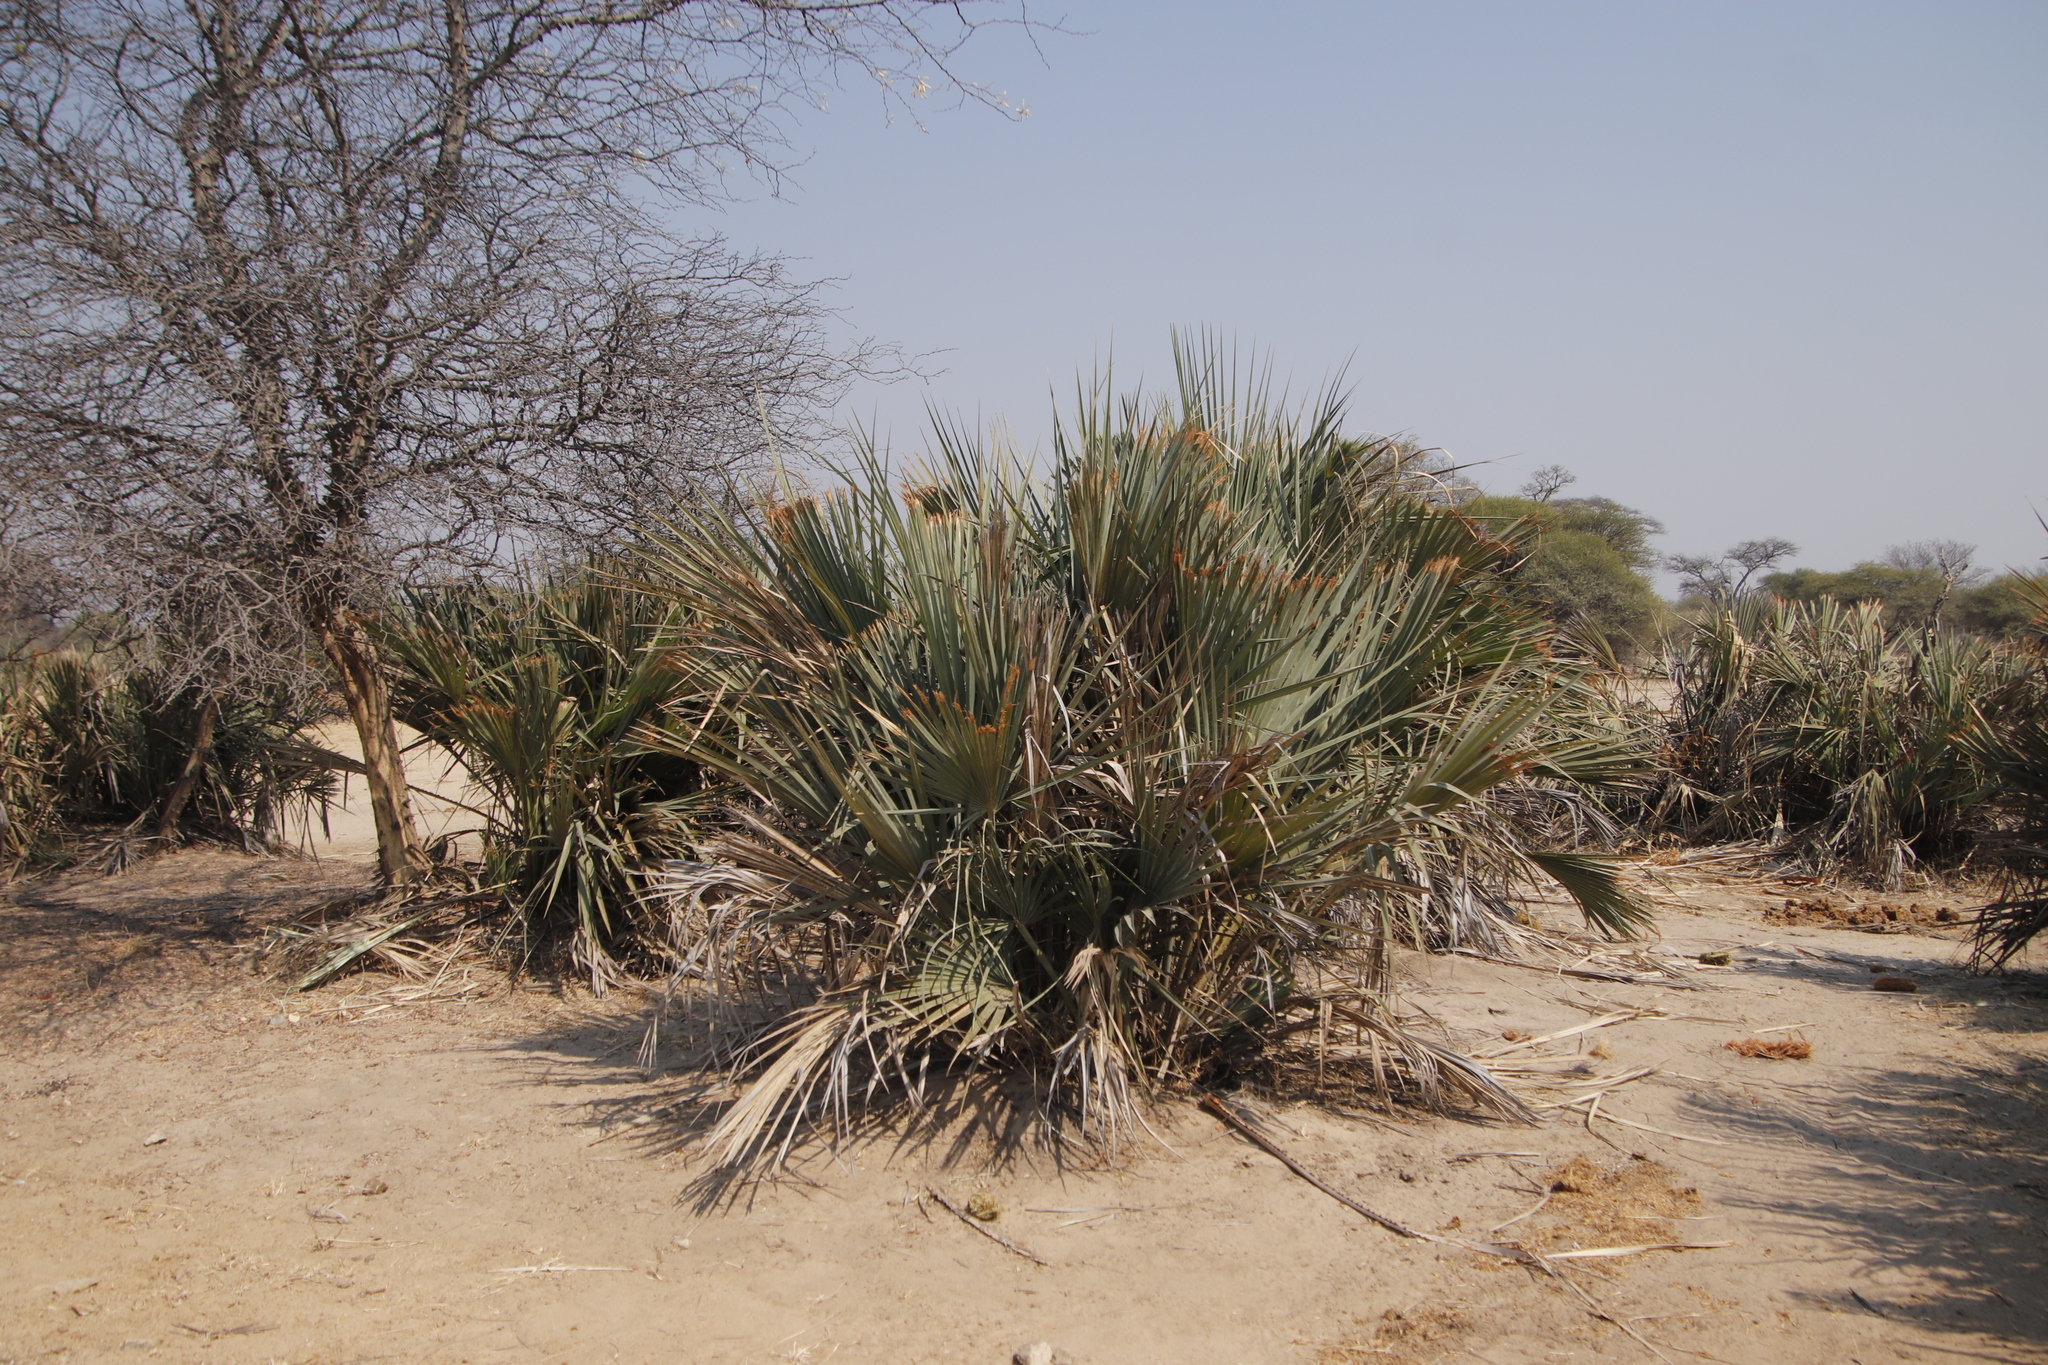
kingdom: Plantae
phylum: Tracheophyta
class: Liliopsida
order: Arecales
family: Arecaceae
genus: Hyphaene
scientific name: Hyphaene petersiana
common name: African ivory nut palm
